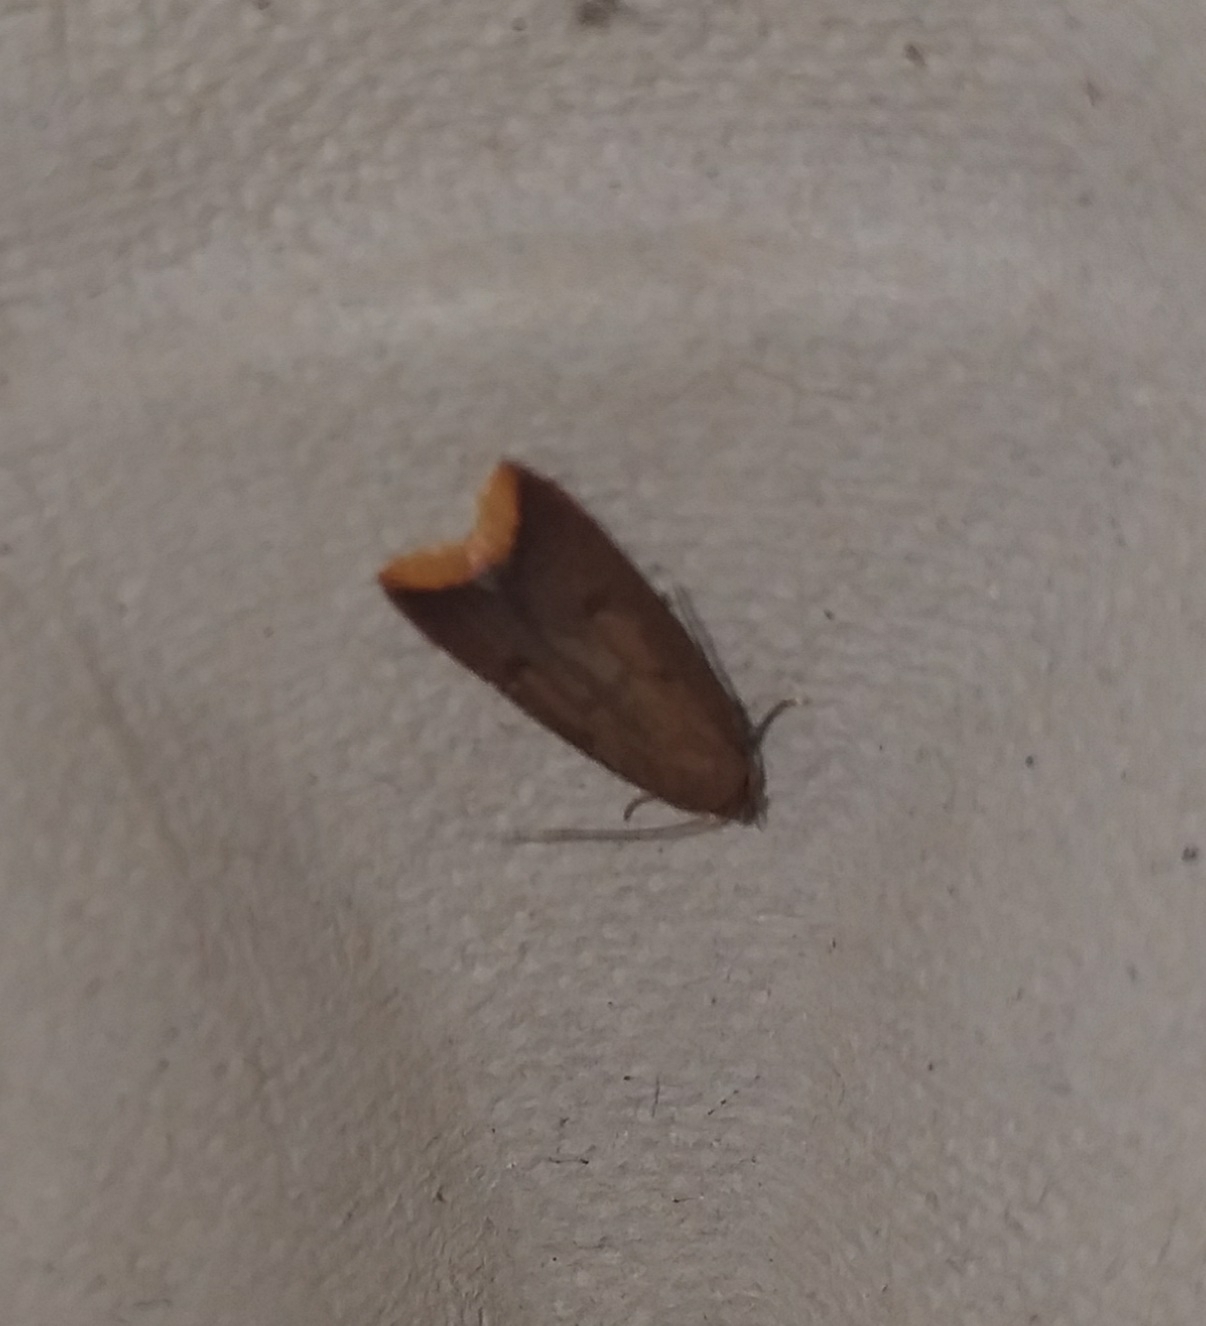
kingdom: Animalia
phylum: Arthropoda
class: Insecta
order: Lepidoptera
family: Oecophoridae
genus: Tachystola
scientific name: Tachystola acroxantha
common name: Ruddy streak
